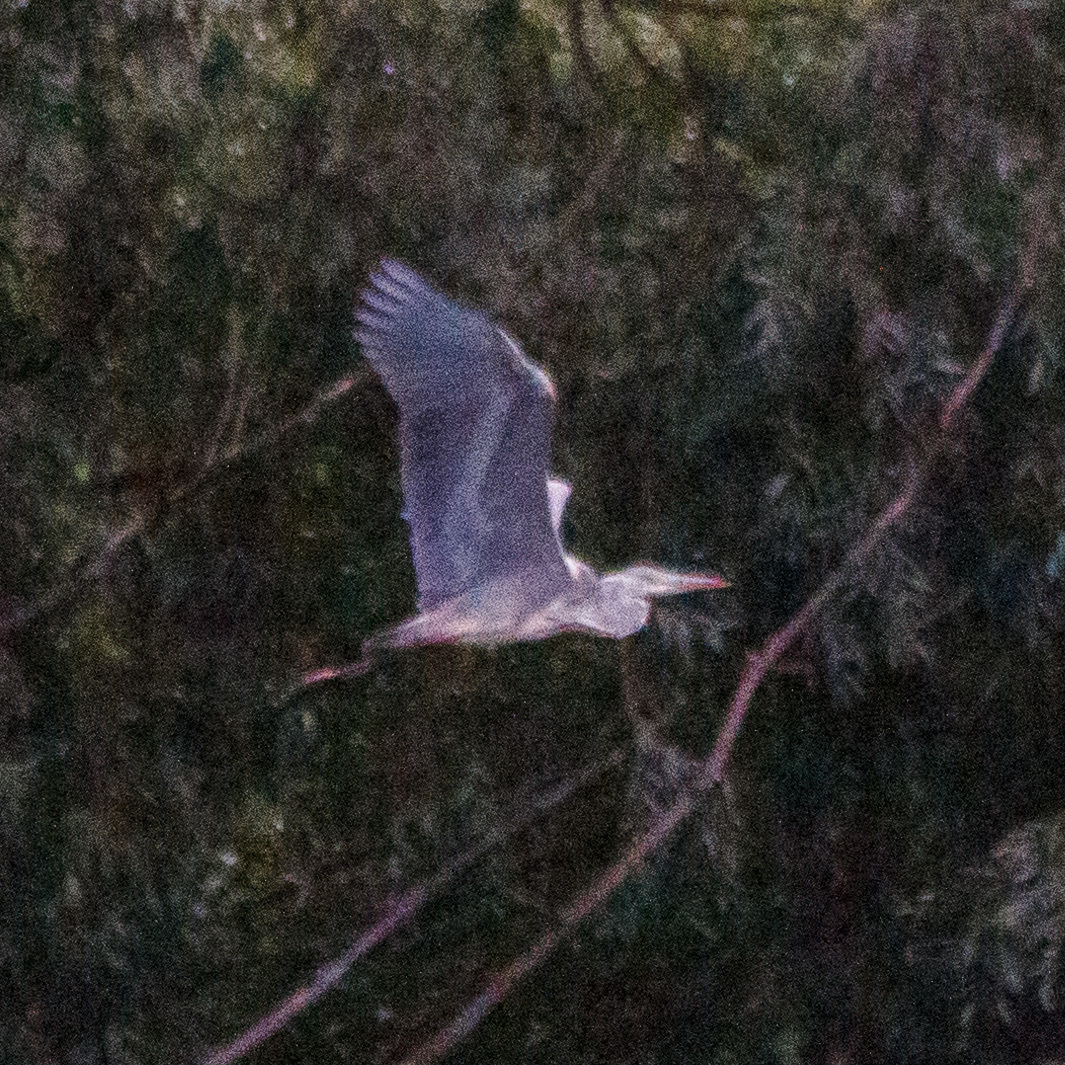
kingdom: Animalia
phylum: Chordata
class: Aves
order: Pelecaniformes
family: Ardeidae
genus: Ardea
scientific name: Ardea cinerea
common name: Grey heron
